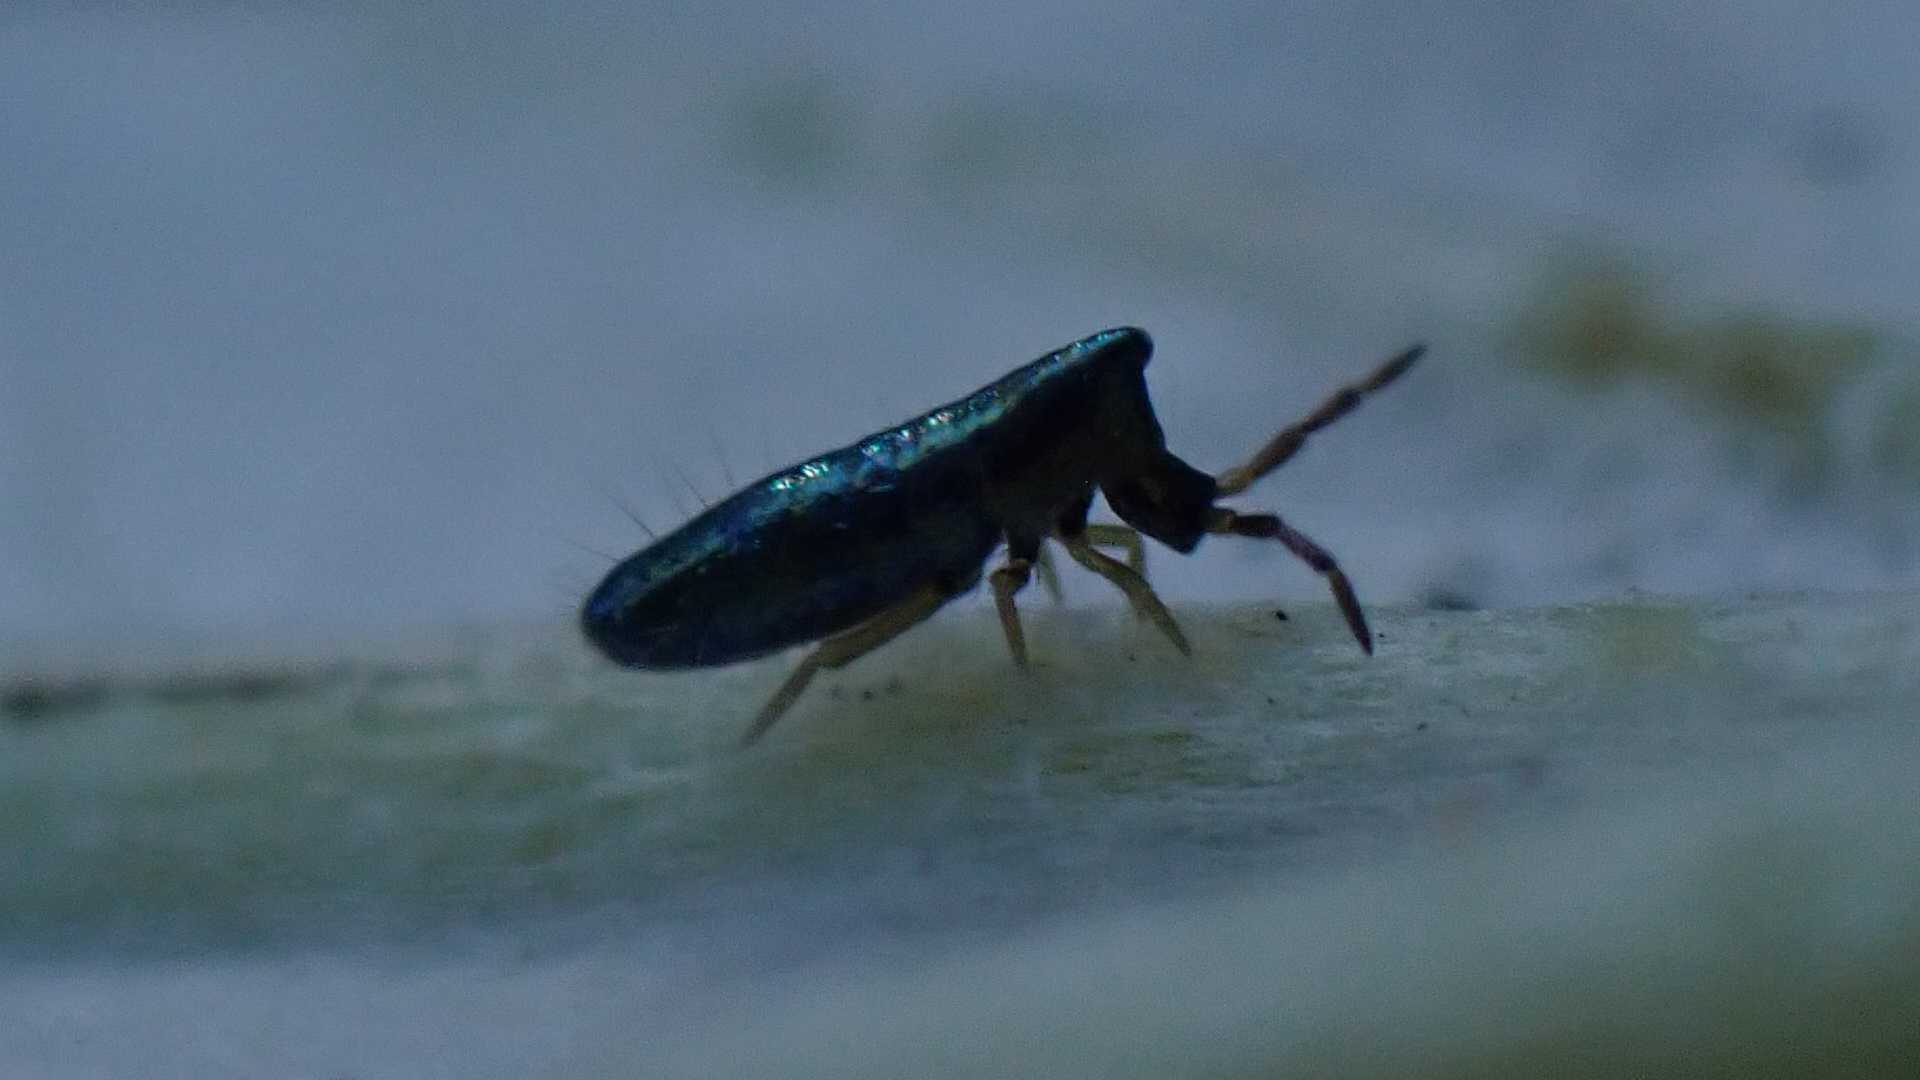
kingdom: Animalia
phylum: Arthropoda
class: Collembola
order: Entomobryomorpha
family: Entomobryidae
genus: Lepidocyrtus
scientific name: Lepidocyrtus paradoxus
